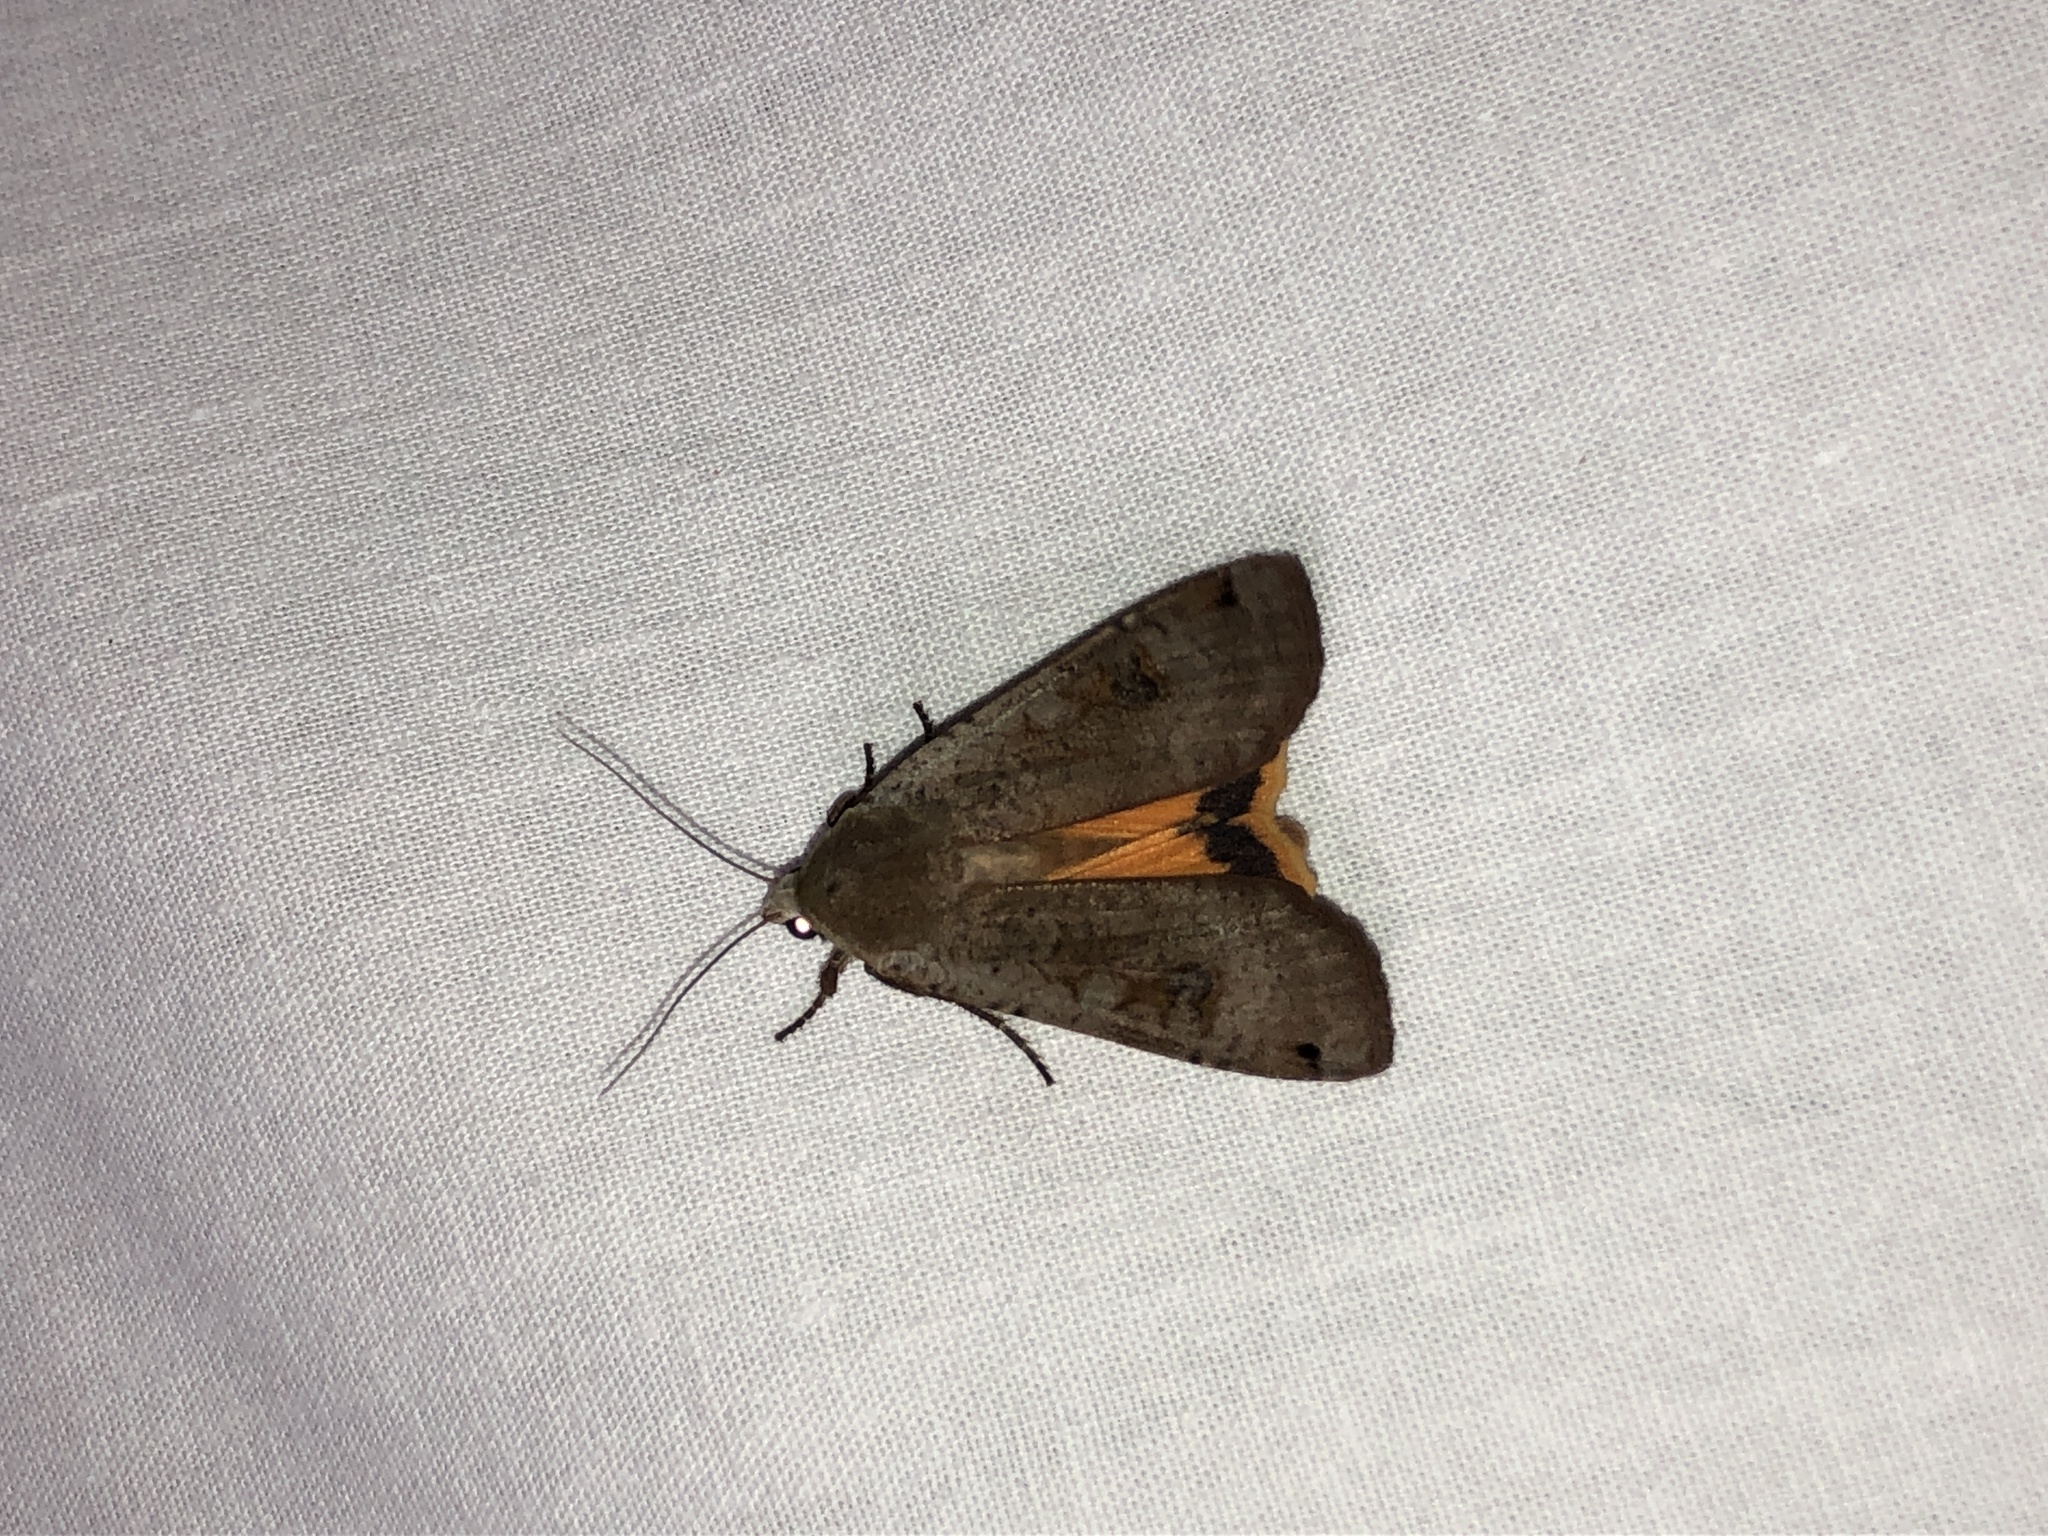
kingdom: Animalia
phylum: Arthropoda
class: Insecta
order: Lepidoptera
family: Noctuidae
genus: Noctua
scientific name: Noctua pronuba
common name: Large yellow underwing
